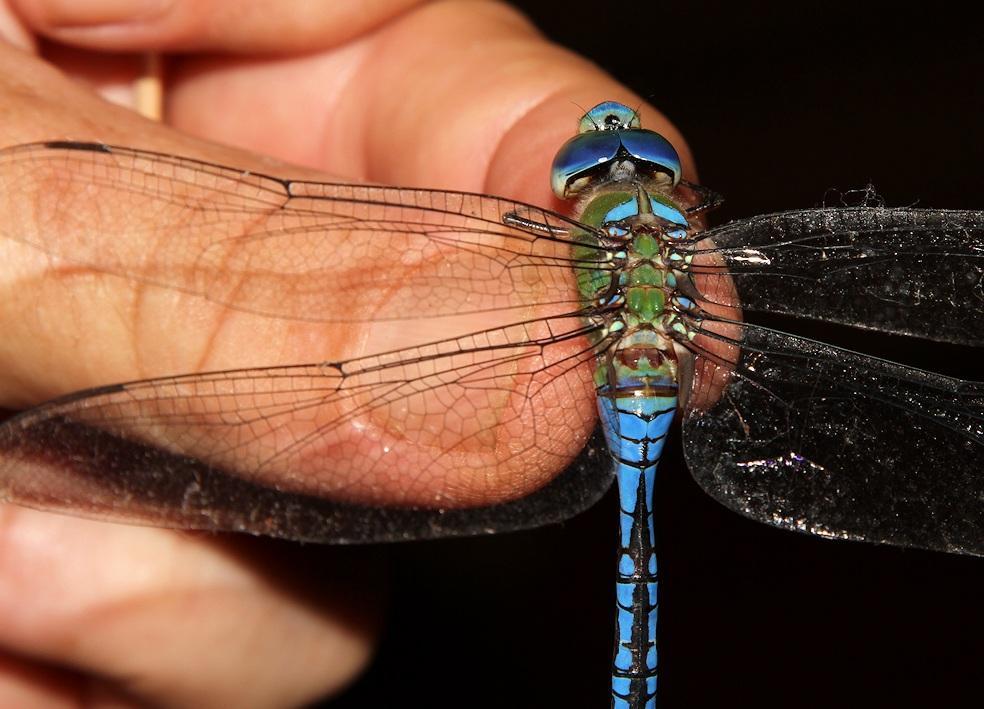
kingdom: Animalia
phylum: Arthropoda
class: Insecta
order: Odonata
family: Aeshnidae
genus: Anax
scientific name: Anax imperator
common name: Emperor dragonfly
